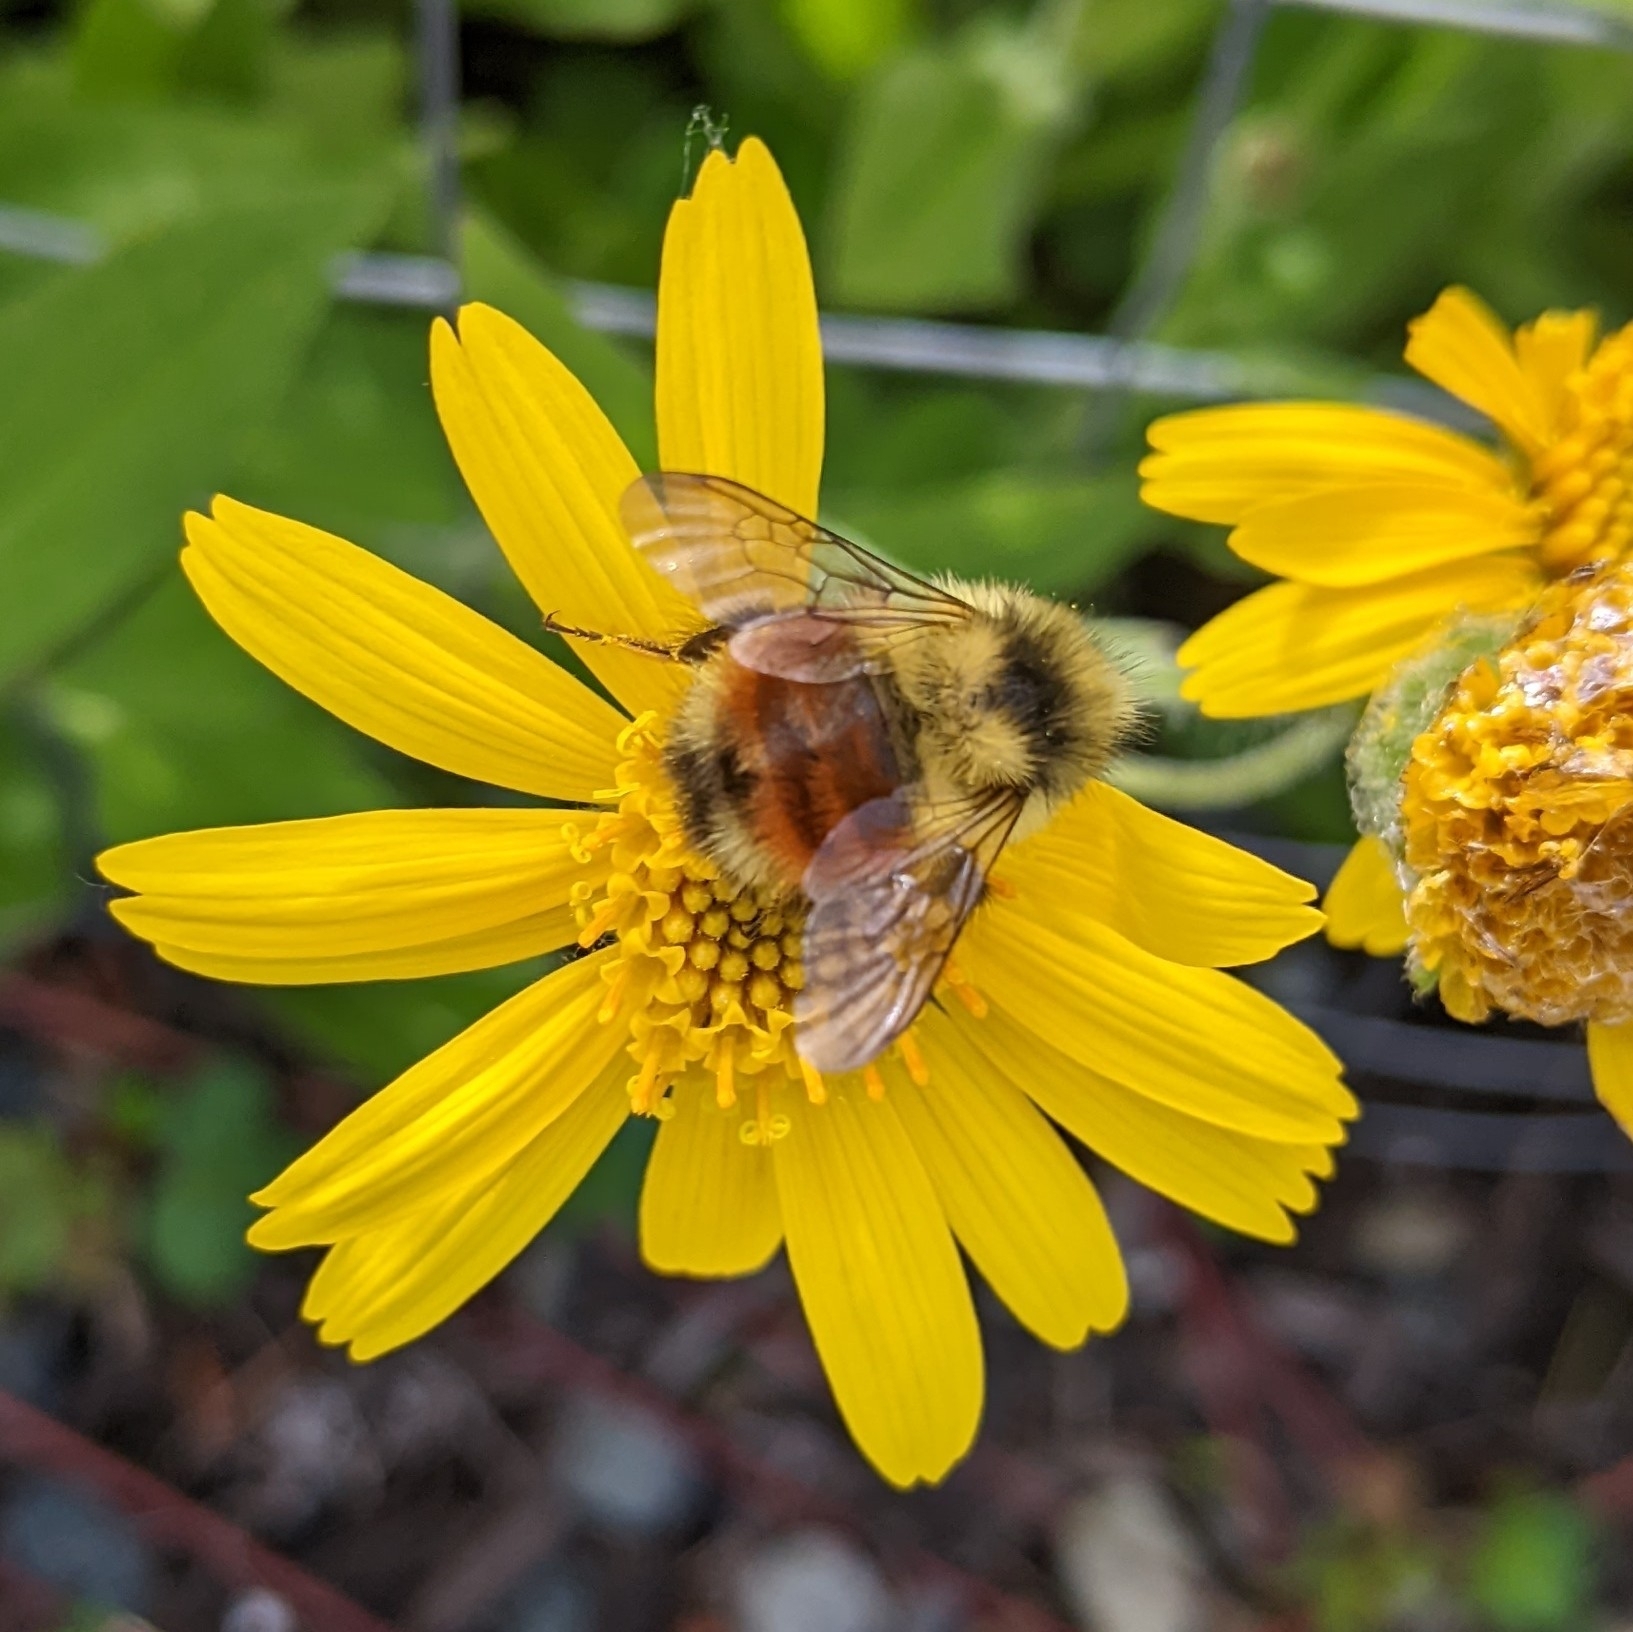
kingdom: Animalia
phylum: Arthropoda
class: Insecta
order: Hymenoptera
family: Apidae
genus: Bombus
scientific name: Bombus melanopygus
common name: Black tail bumble bee
